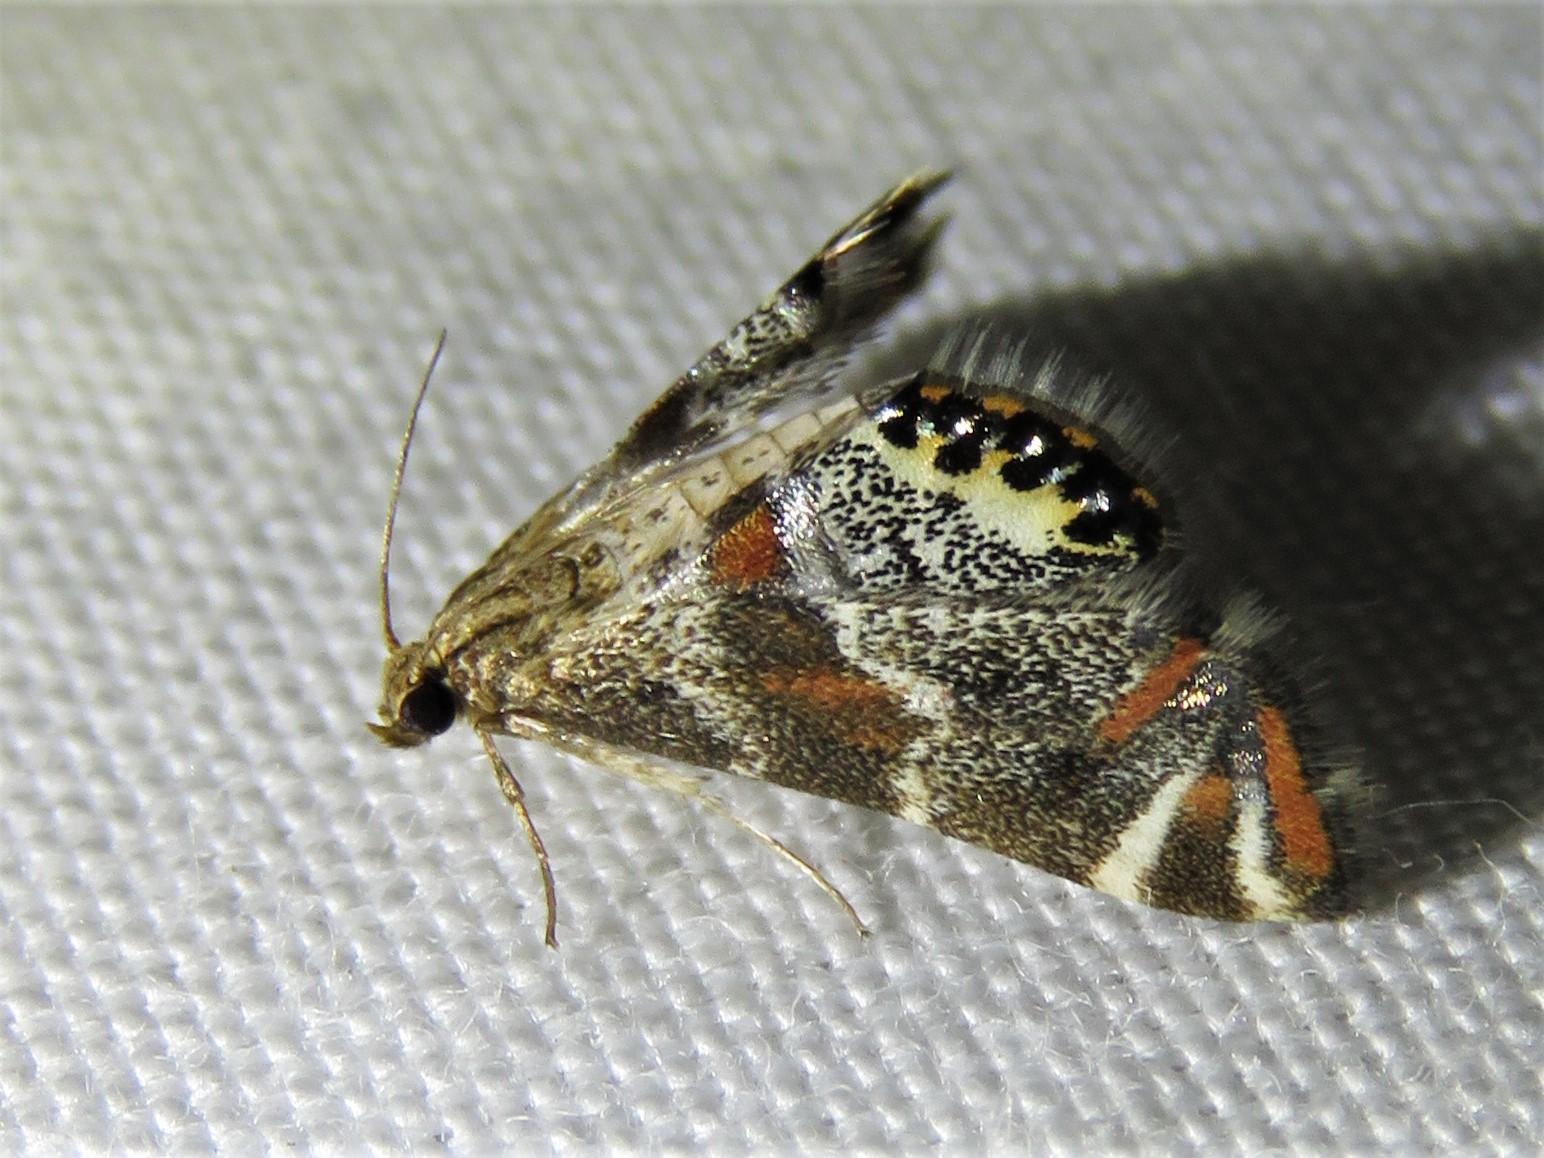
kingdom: Animalia
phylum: Arthropoda
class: Insecta
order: Lepidoptera
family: Crambidae
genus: Petrophila
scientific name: Petrophila jaliscalis
